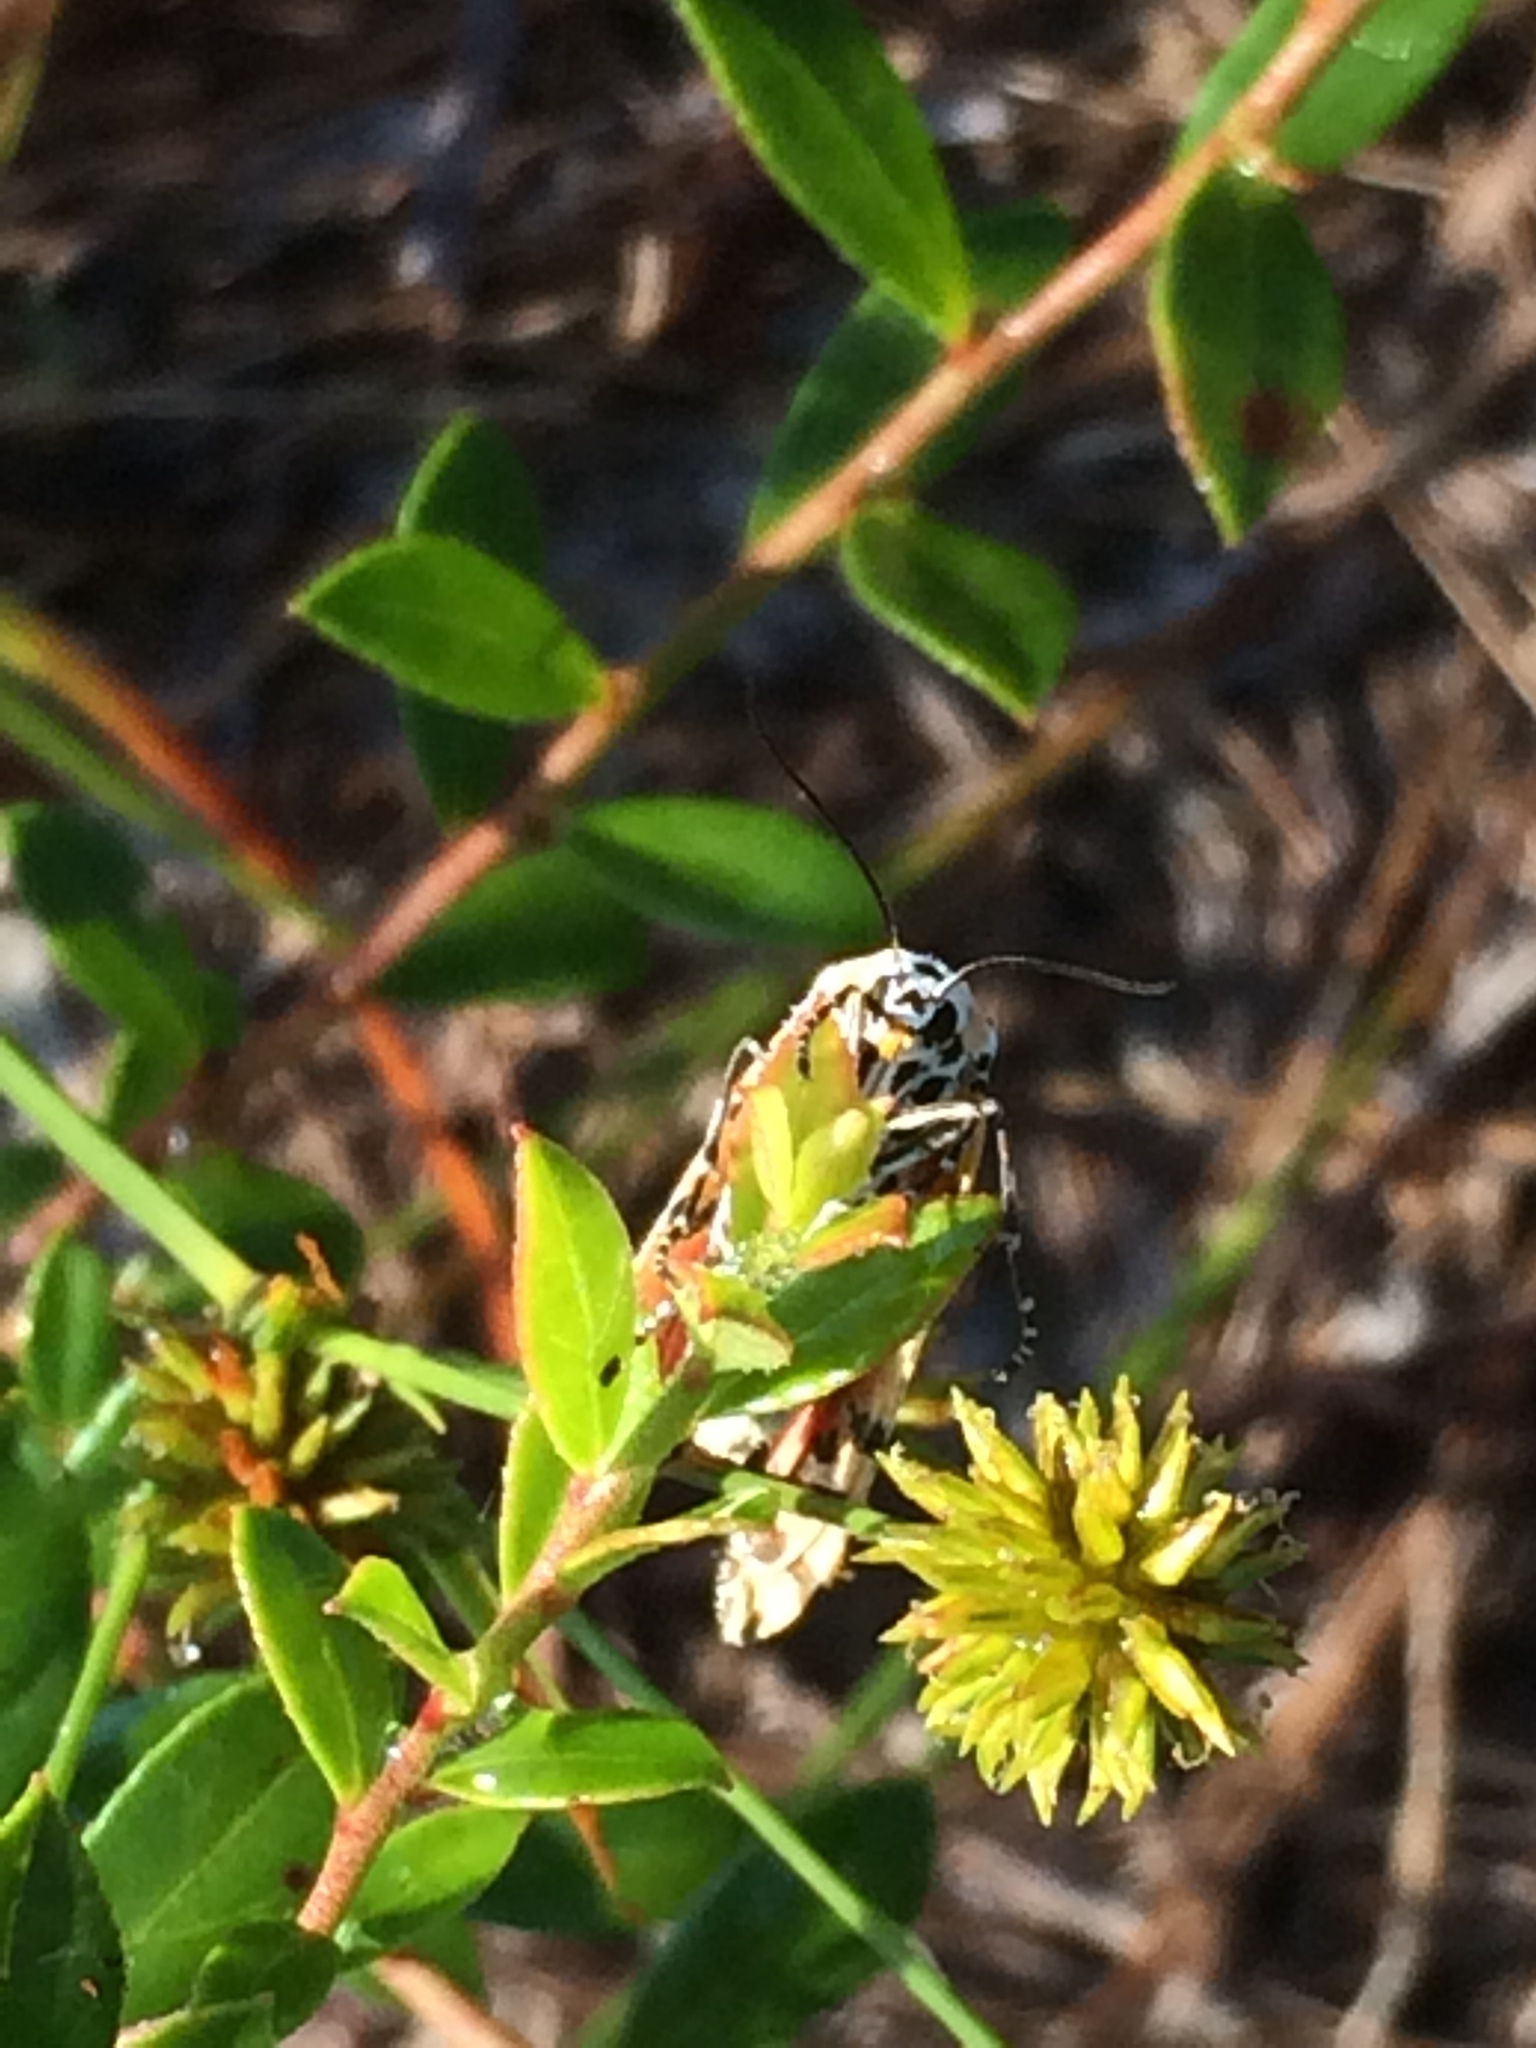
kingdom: Animalia
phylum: Arthropoda
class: Insecta
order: Lepidoptera
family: Erebidae
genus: Utetheisa
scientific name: Utetheisa ornatrix
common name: Beautiful utetheisa
